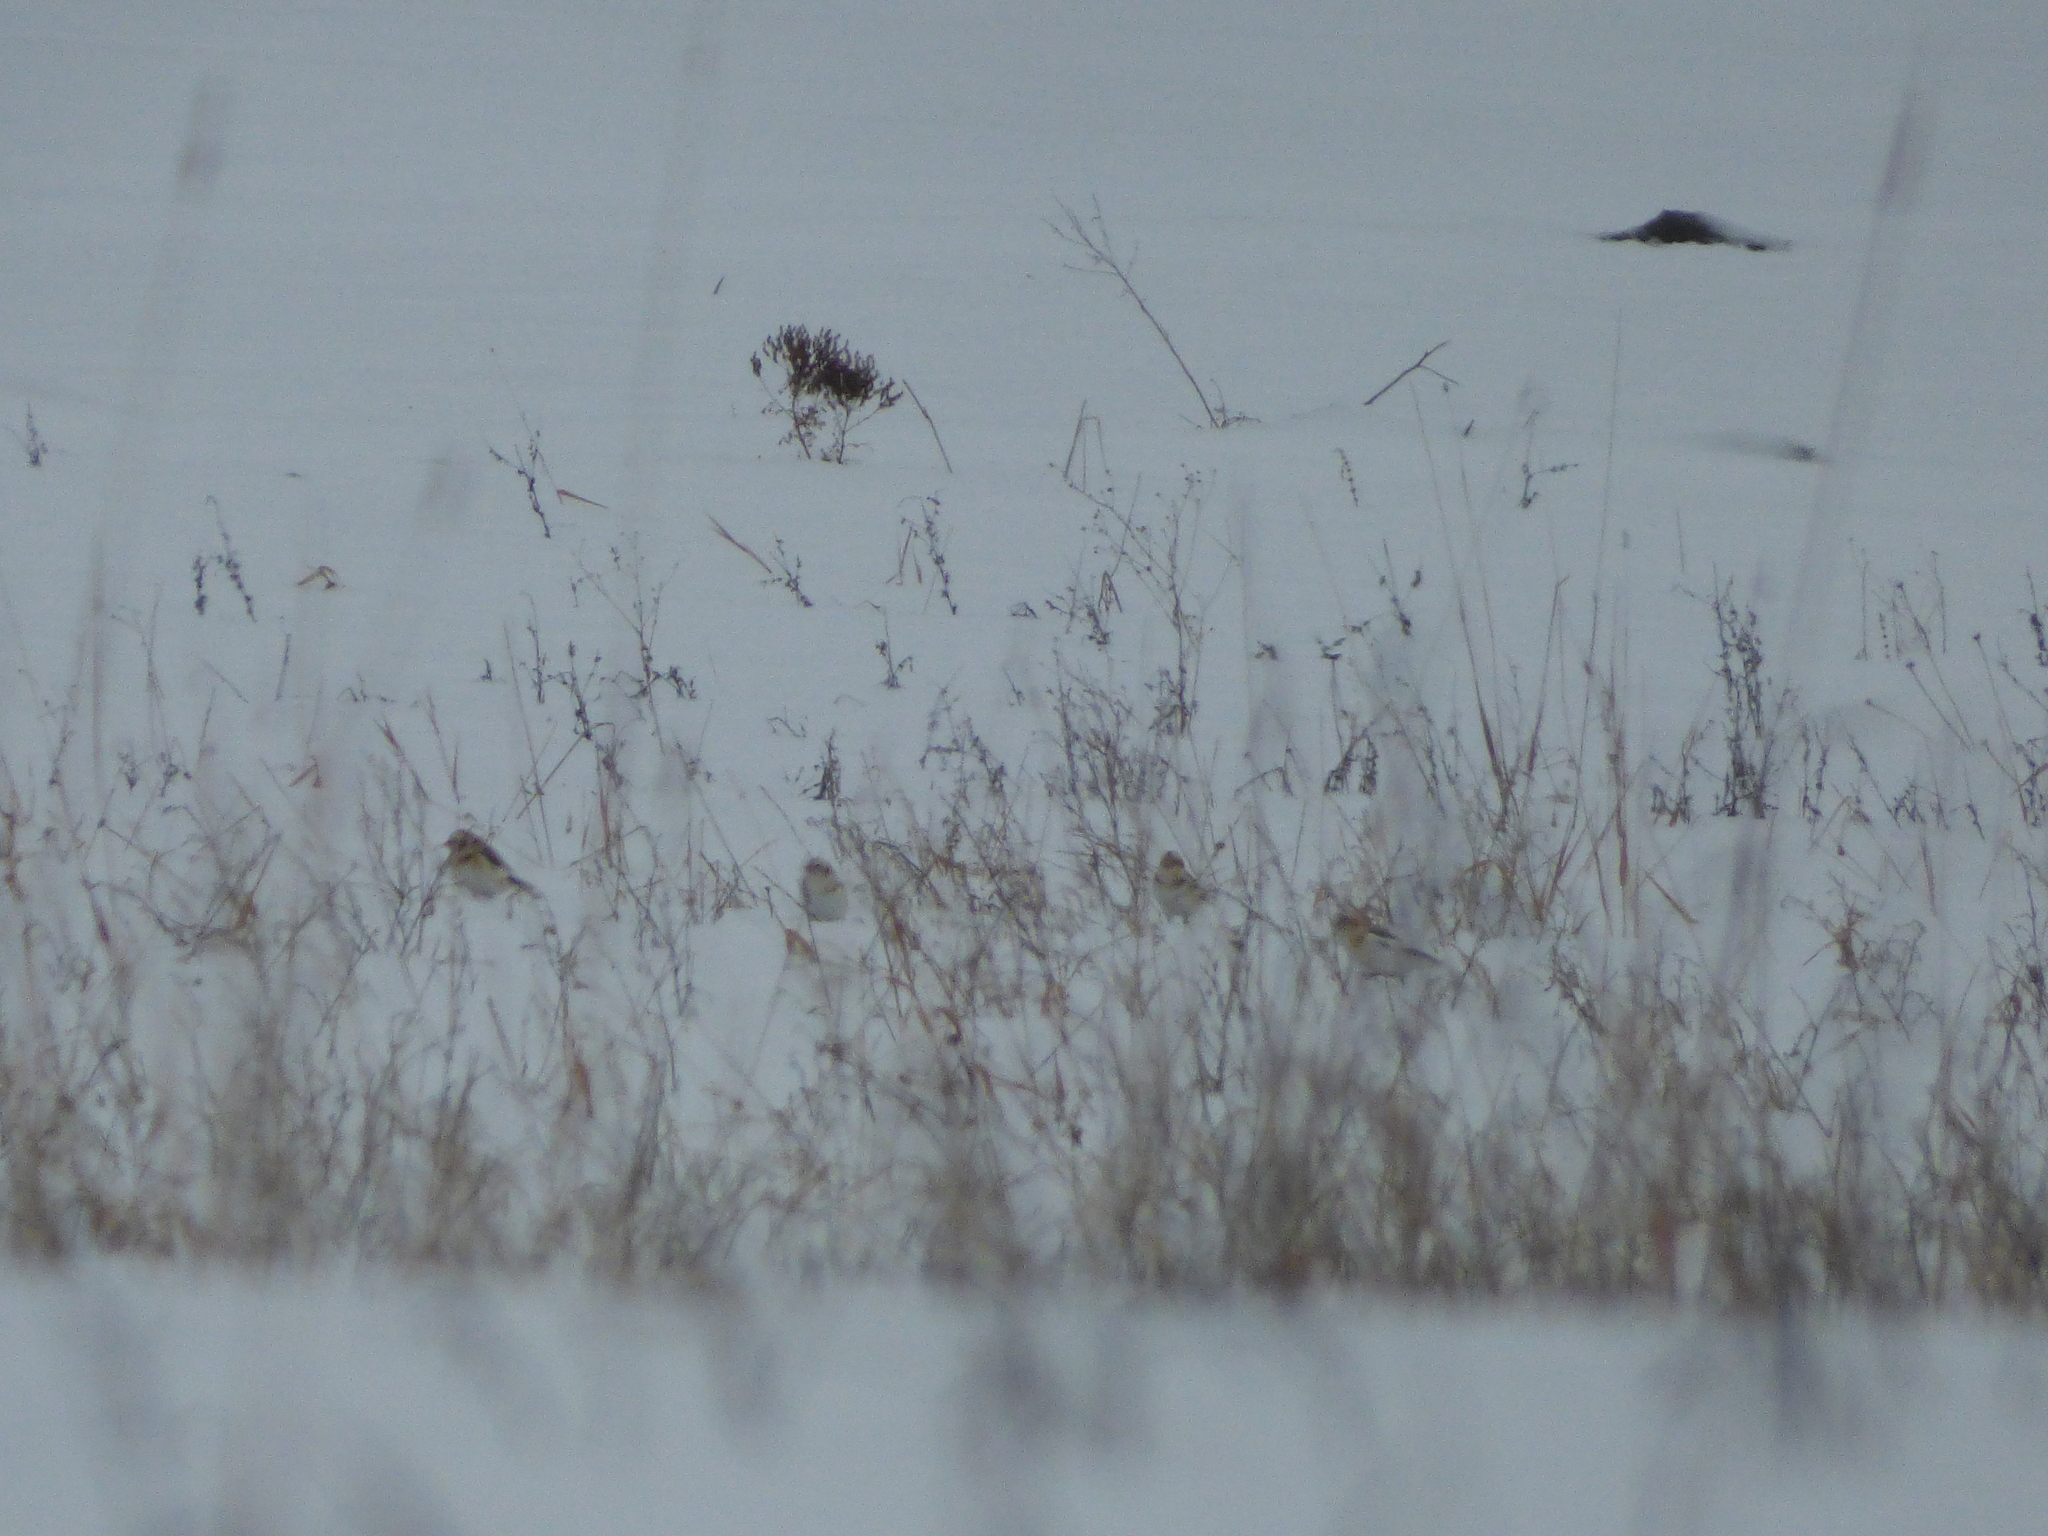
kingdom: Animalia
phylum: Chordata
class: Aves
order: Passeriformes
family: Calcariidae
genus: Plectrophenax
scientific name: Plectrophenax nivalis
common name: Snow bunting
